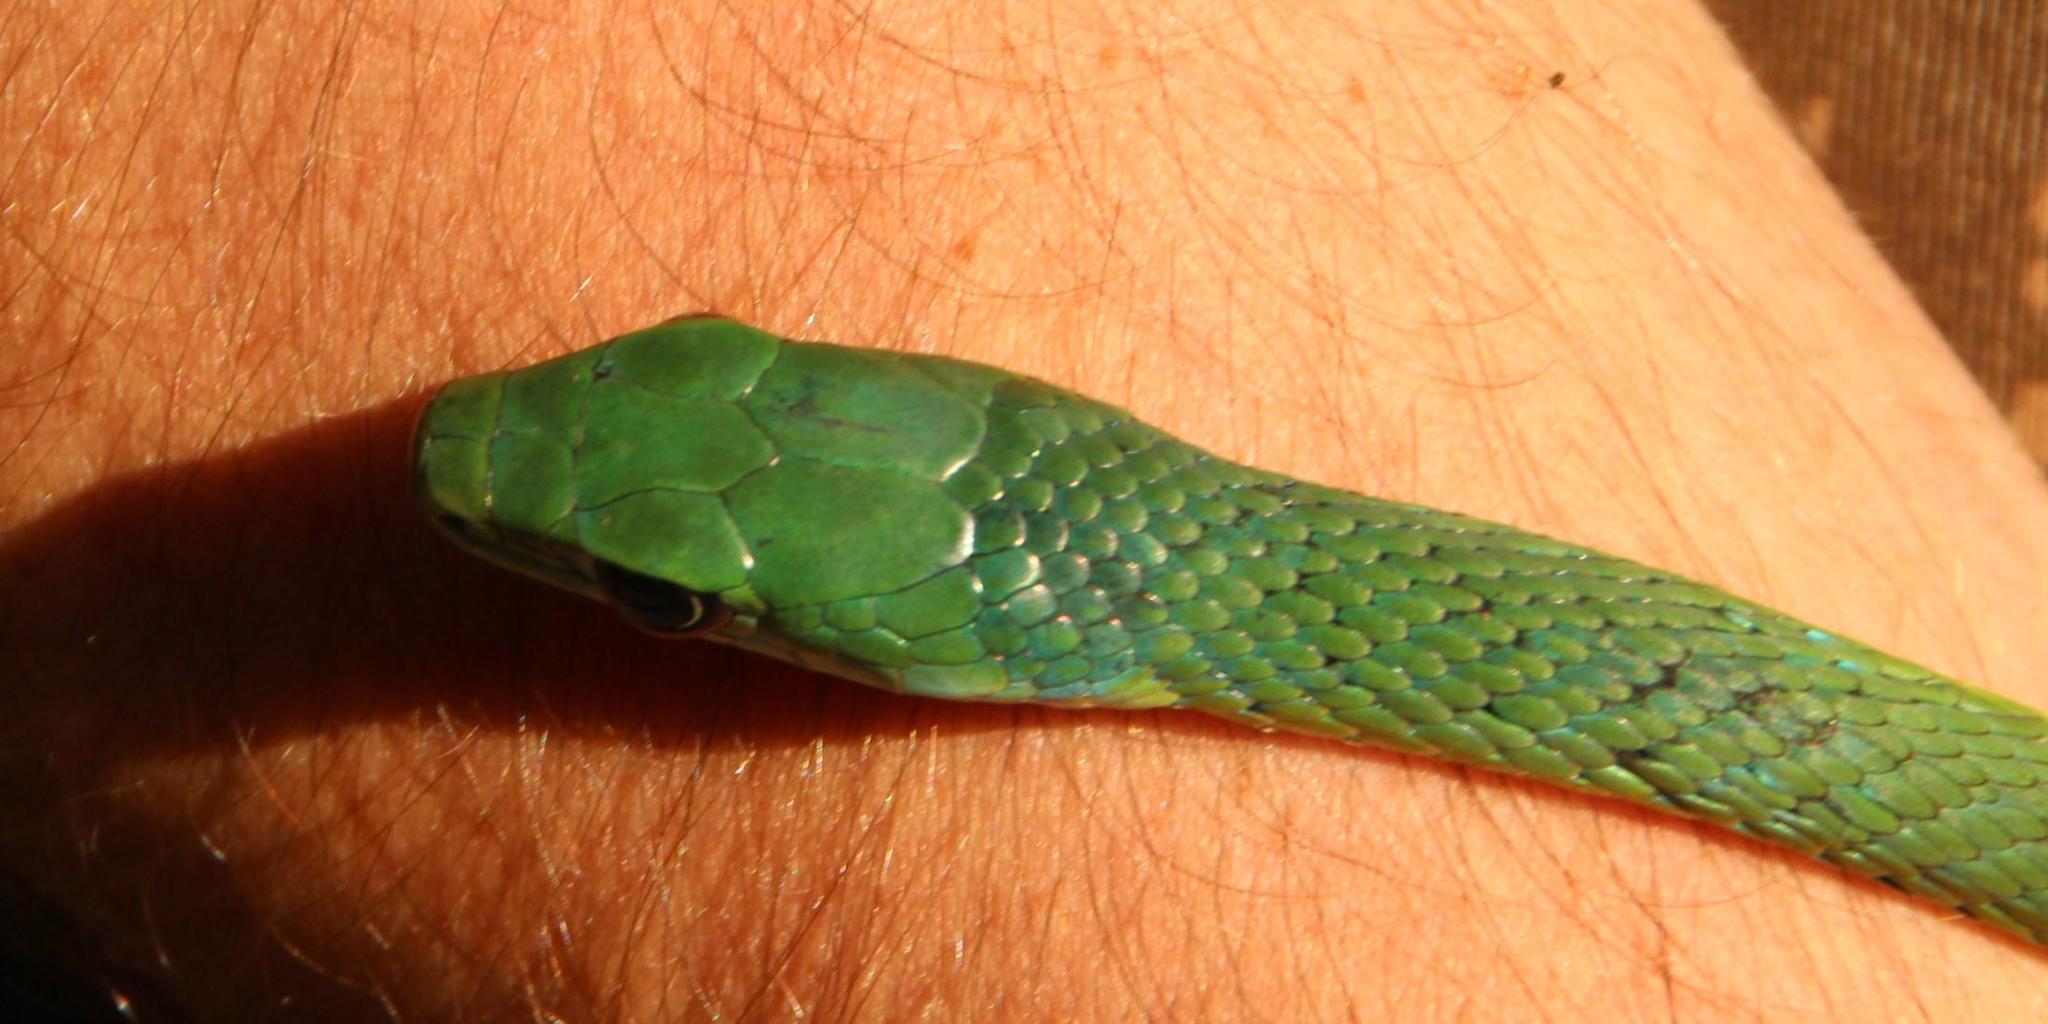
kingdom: Animalia
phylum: Chordata
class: Squamata
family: Colubridae
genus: Philothamnus
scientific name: Philothamnus occidentalis
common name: Western natal green snake
